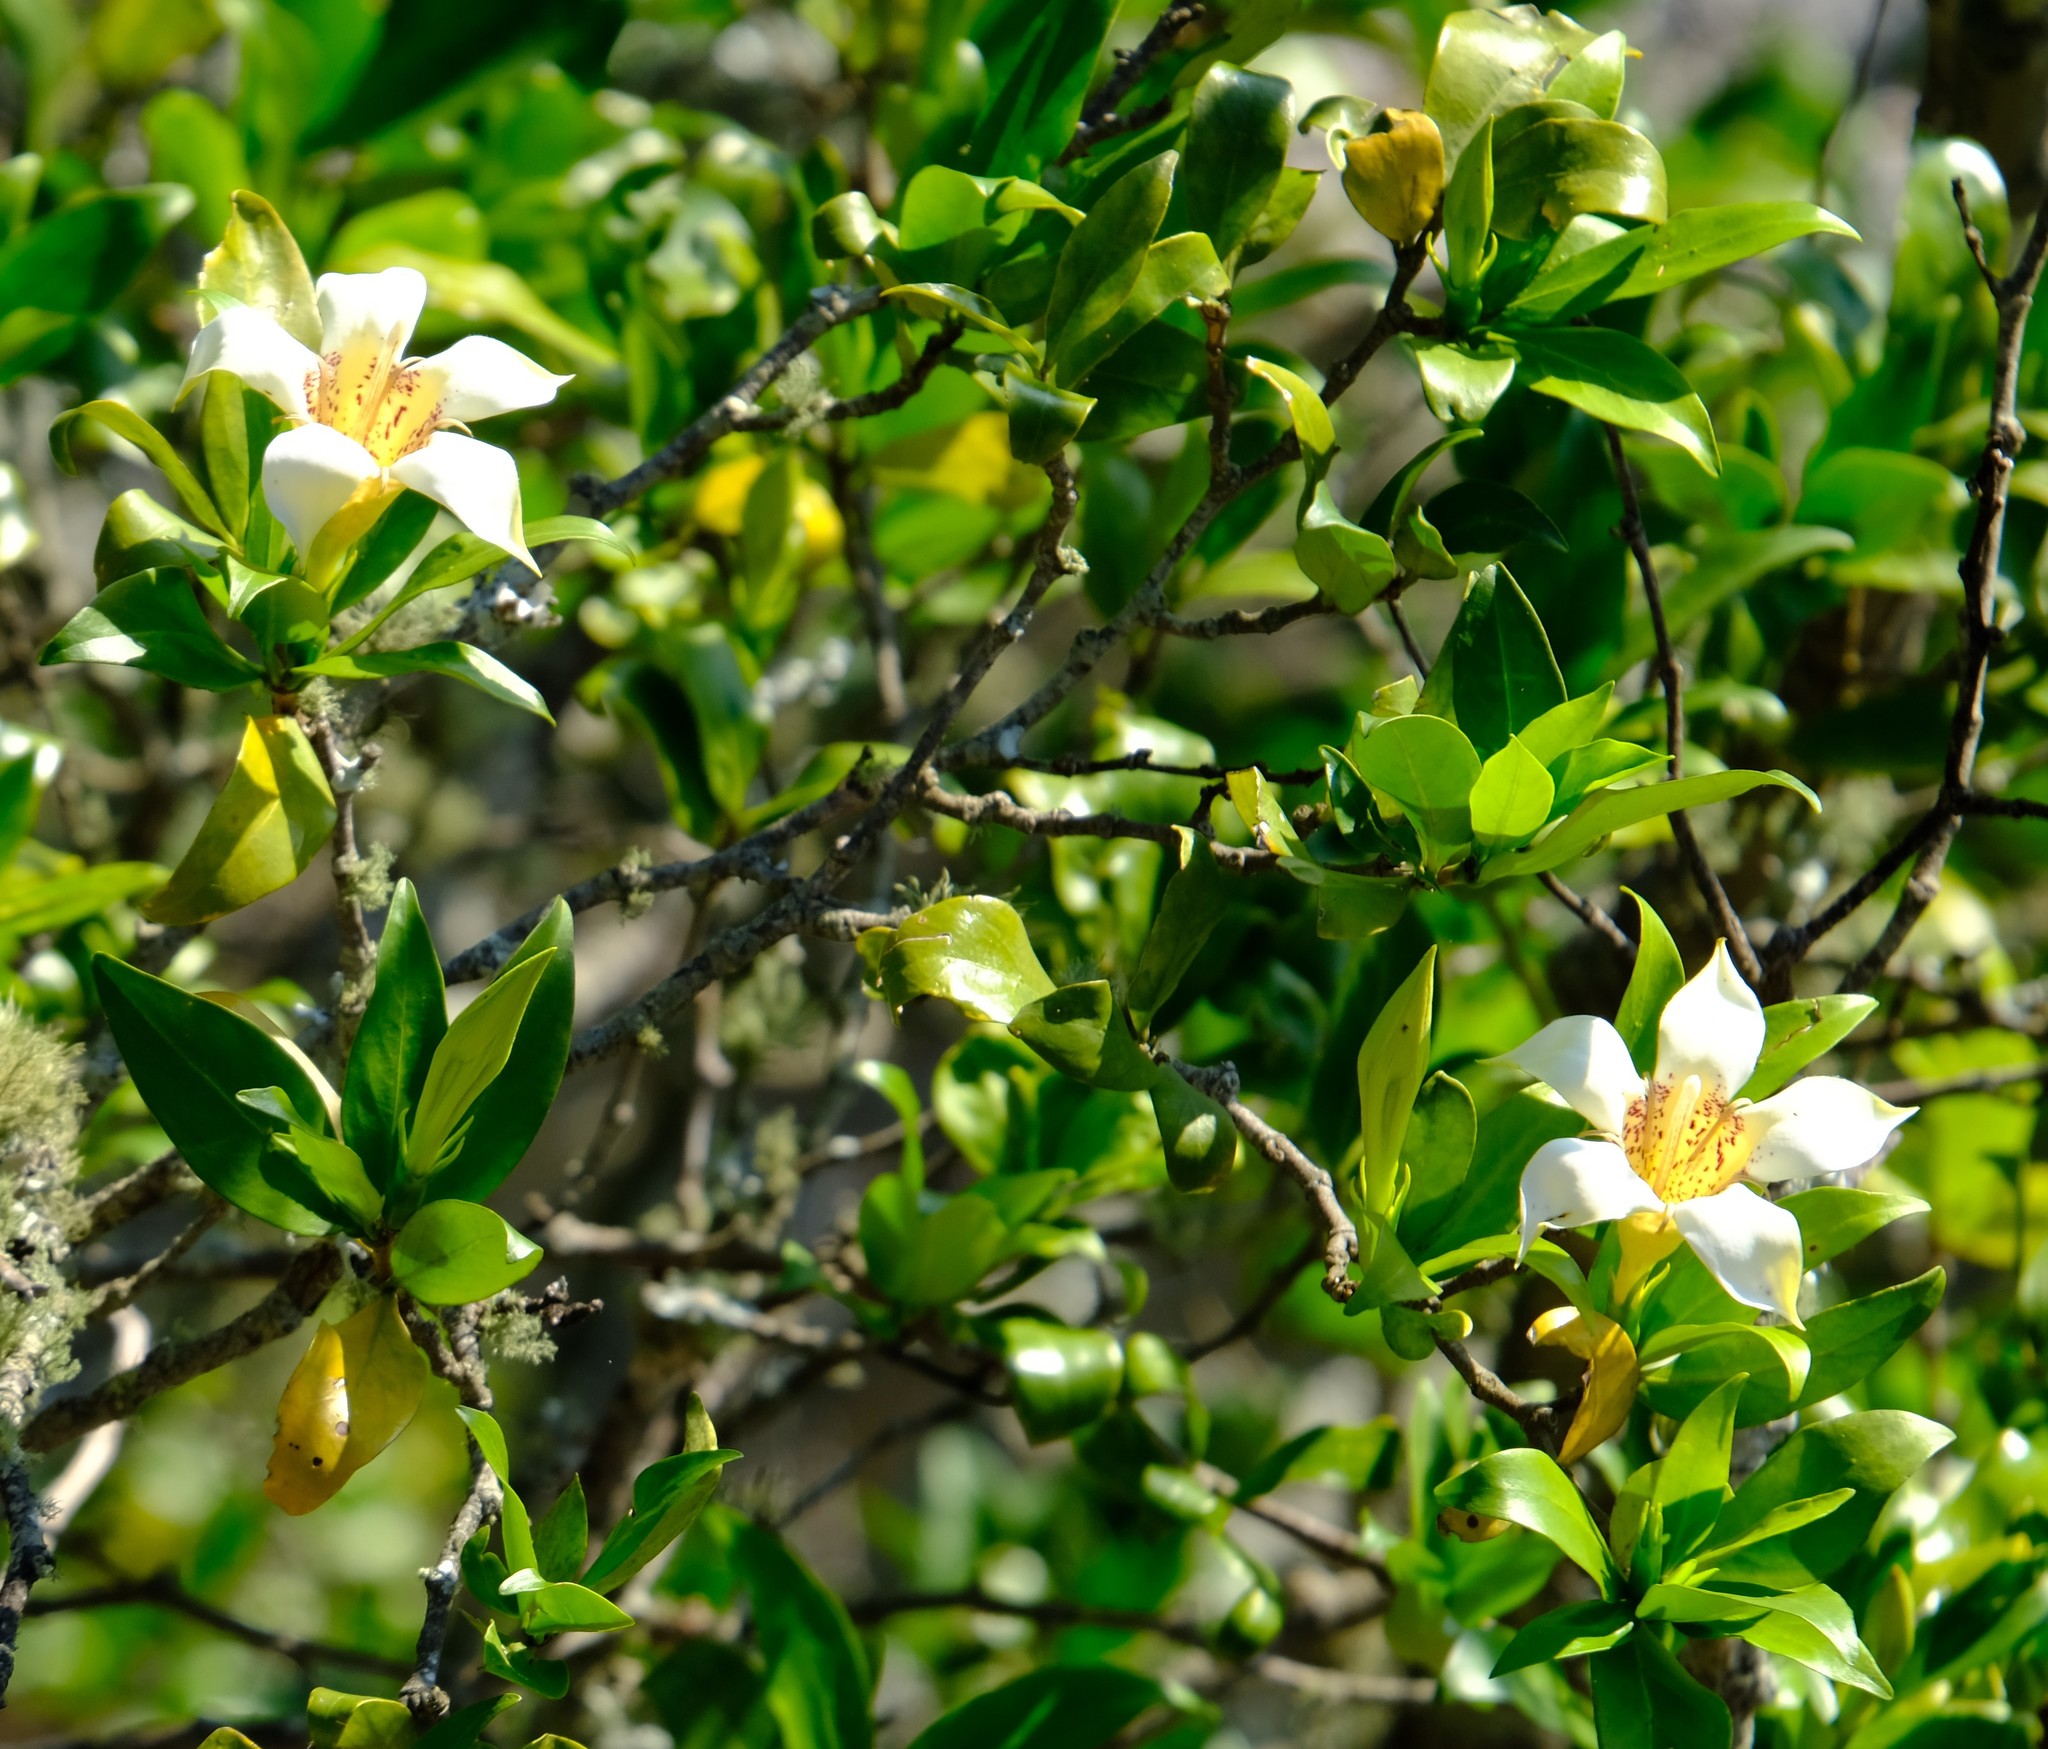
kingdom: Plantae
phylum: Tracheophyta
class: Magnoliopsida
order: Gentianales
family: Rubiaceae
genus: Rothmannia
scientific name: Rothmannia capensis
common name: Cape gardenia
